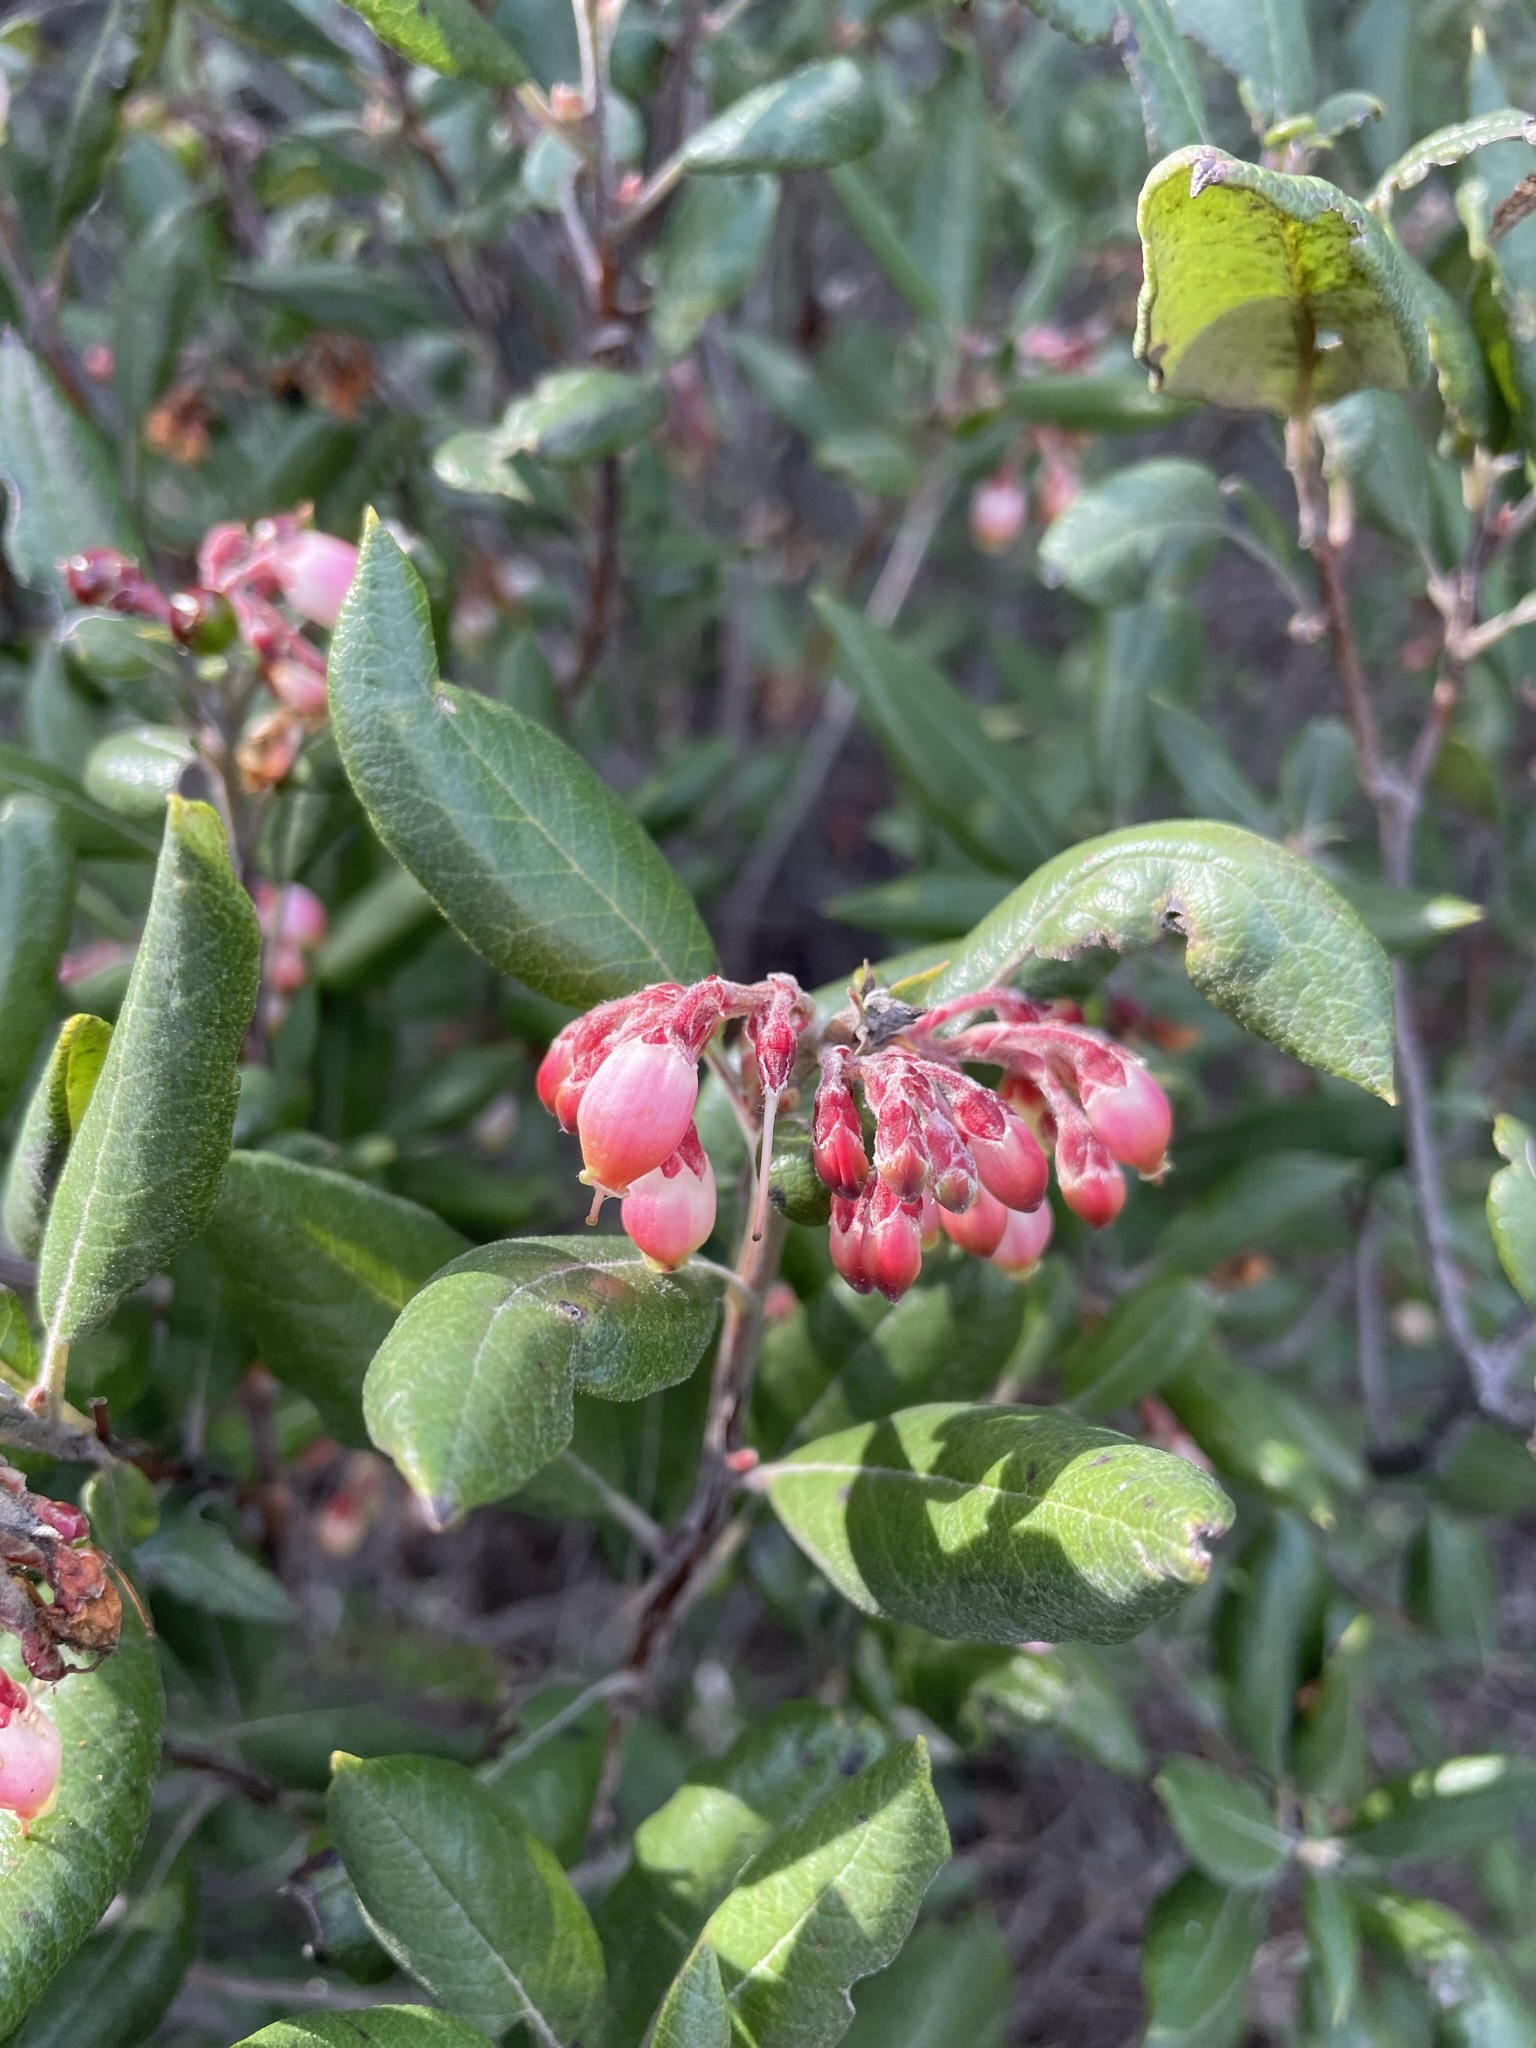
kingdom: Plantae
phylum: Tracheophyta
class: Magnoliopsida
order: Ericales
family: Ericaceae
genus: Arctostaphylos
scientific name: Arctostaphylos bicolor
